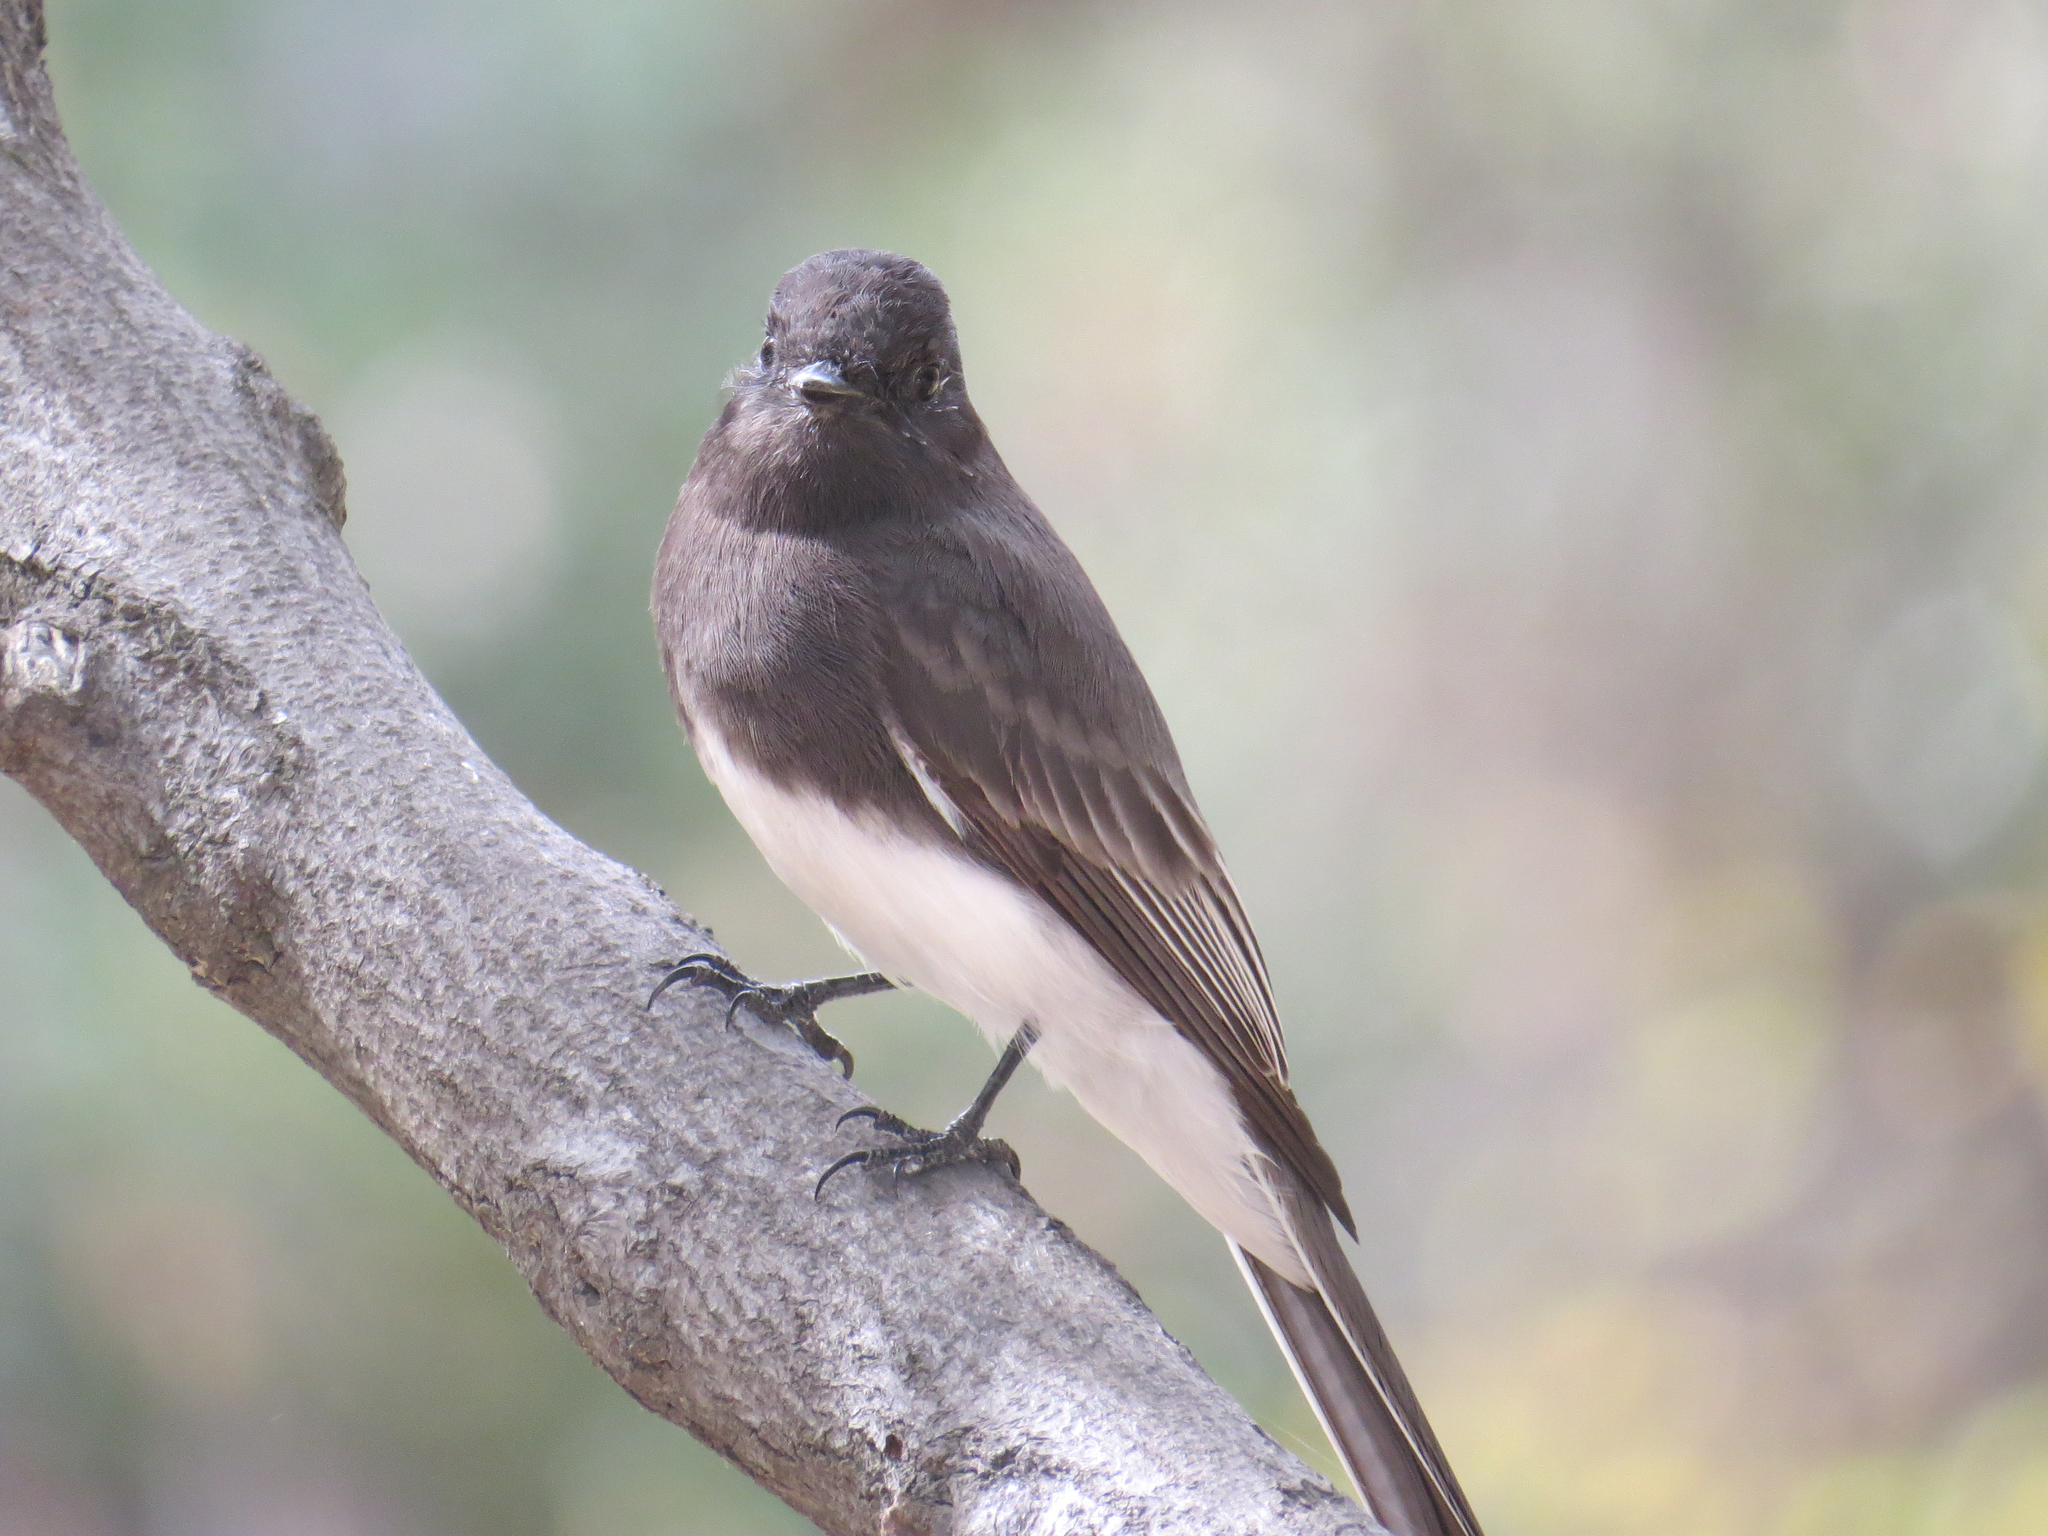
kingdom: Animalia
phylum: Chordata
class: Aves
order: Passeriformes
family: Tyrannidae
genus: Sayornis
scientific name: Sayornis nigricans
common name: Black phoebe
